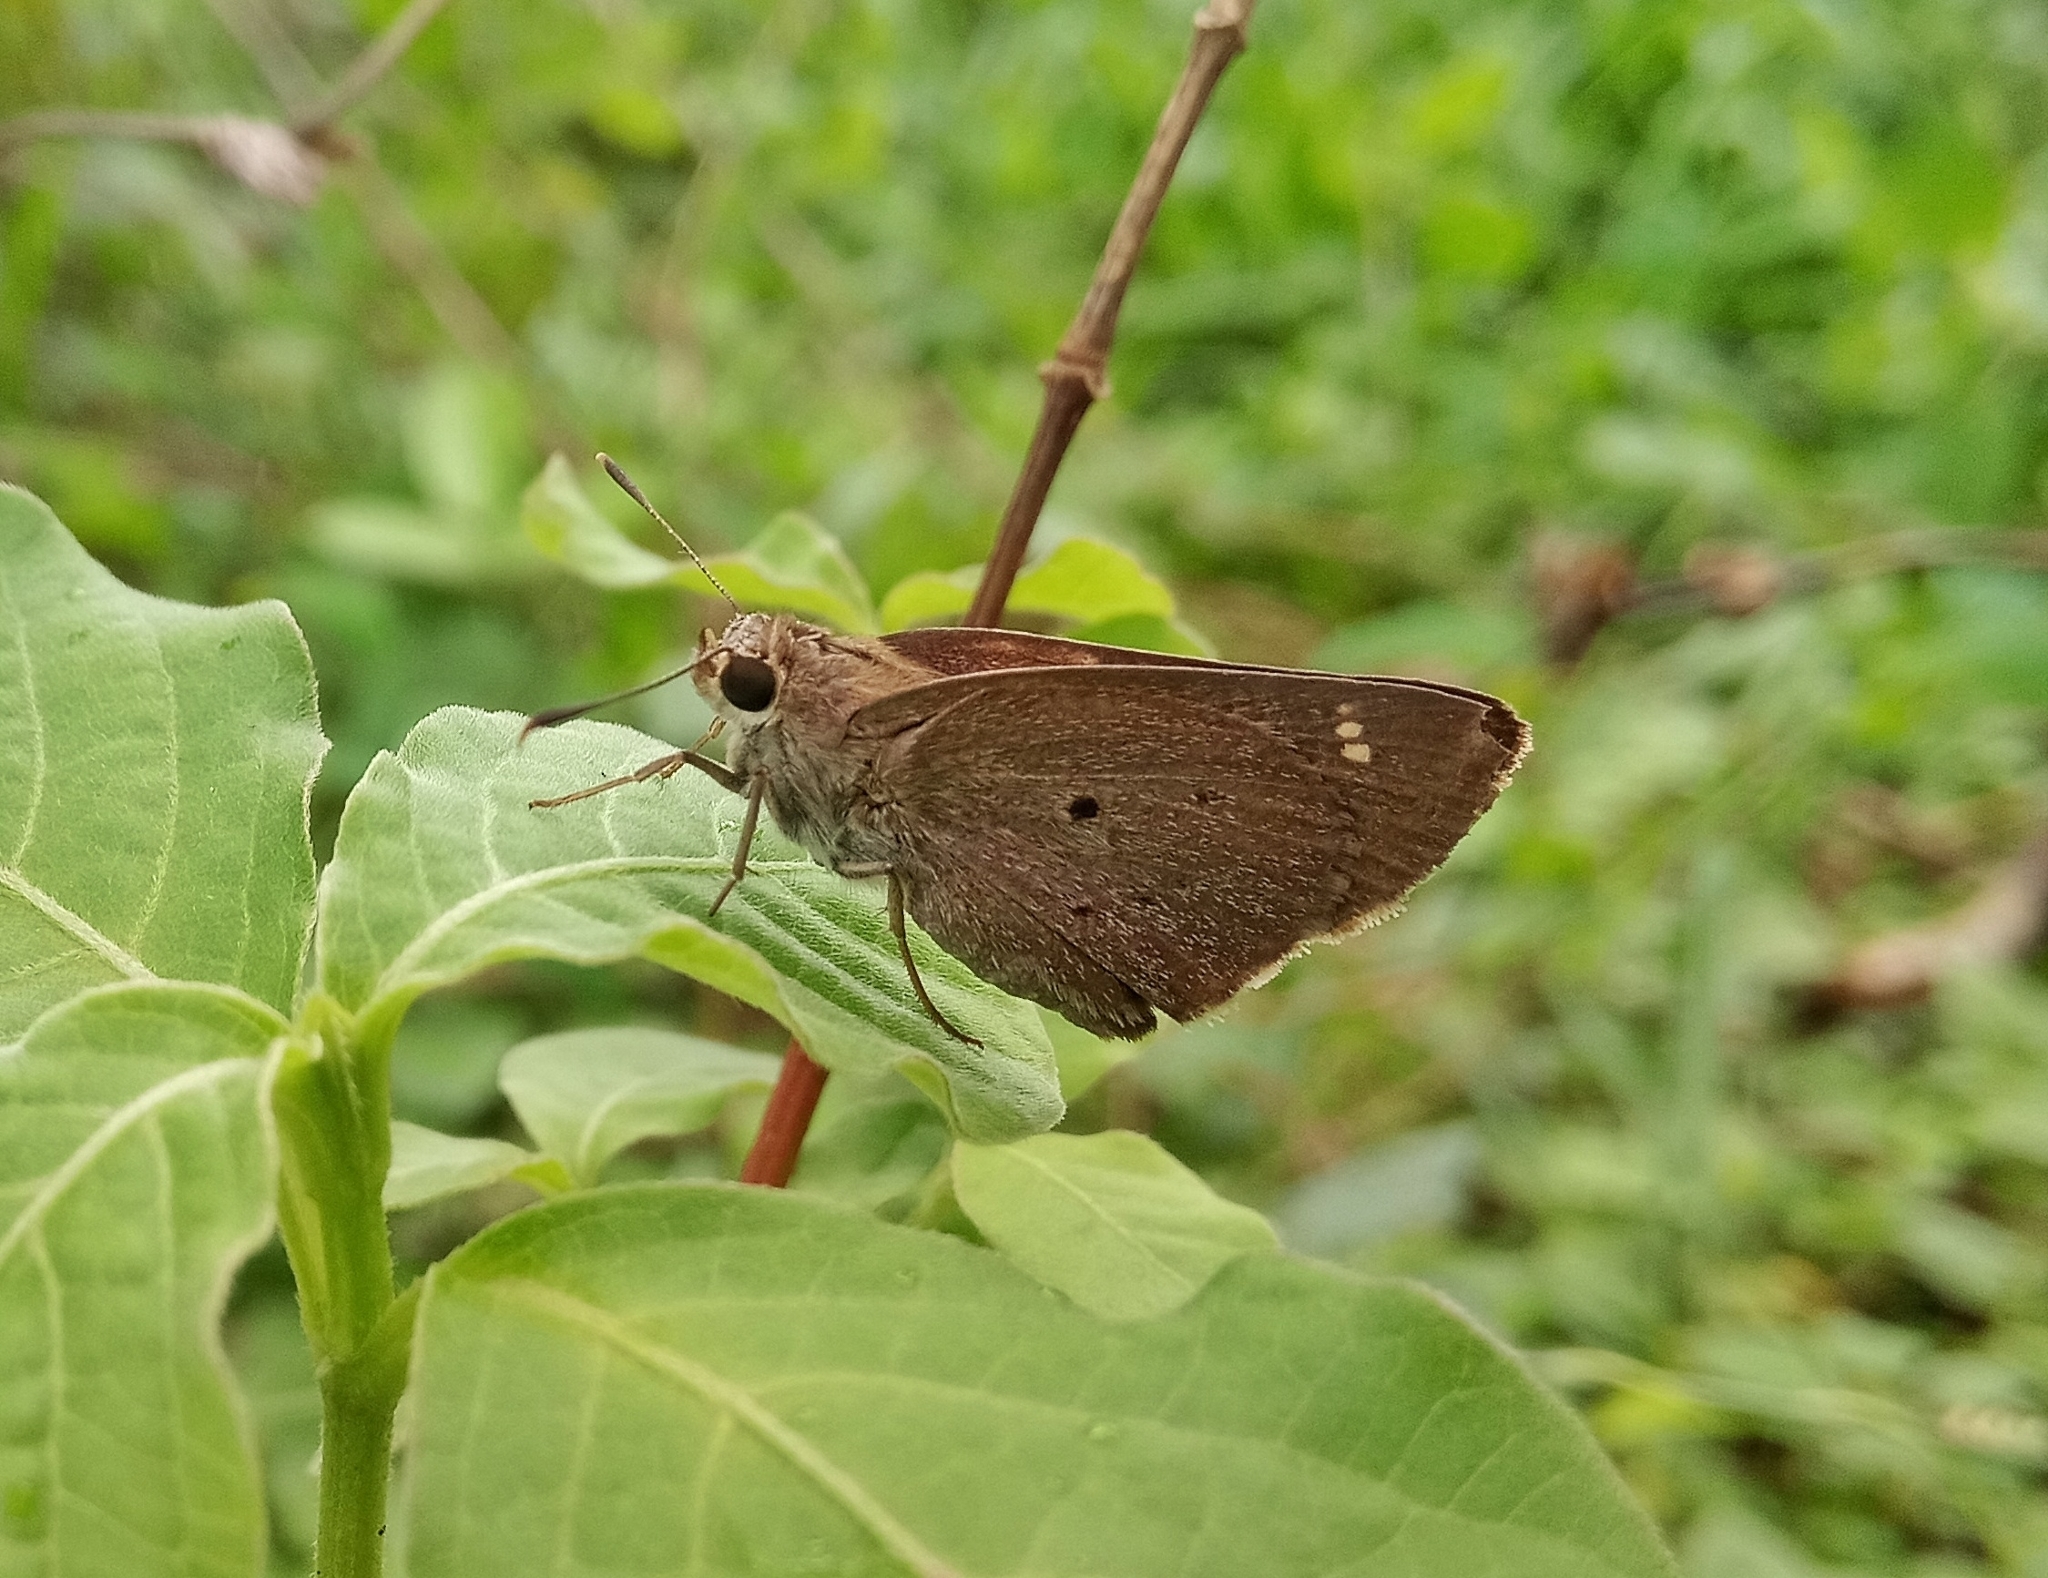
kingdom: Animalia
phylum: Arthropoda
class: Insecta
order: Lepidoptera
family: Hesperiidae
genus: Suastus
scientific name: Suastus gremius
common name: Indian palm bob
